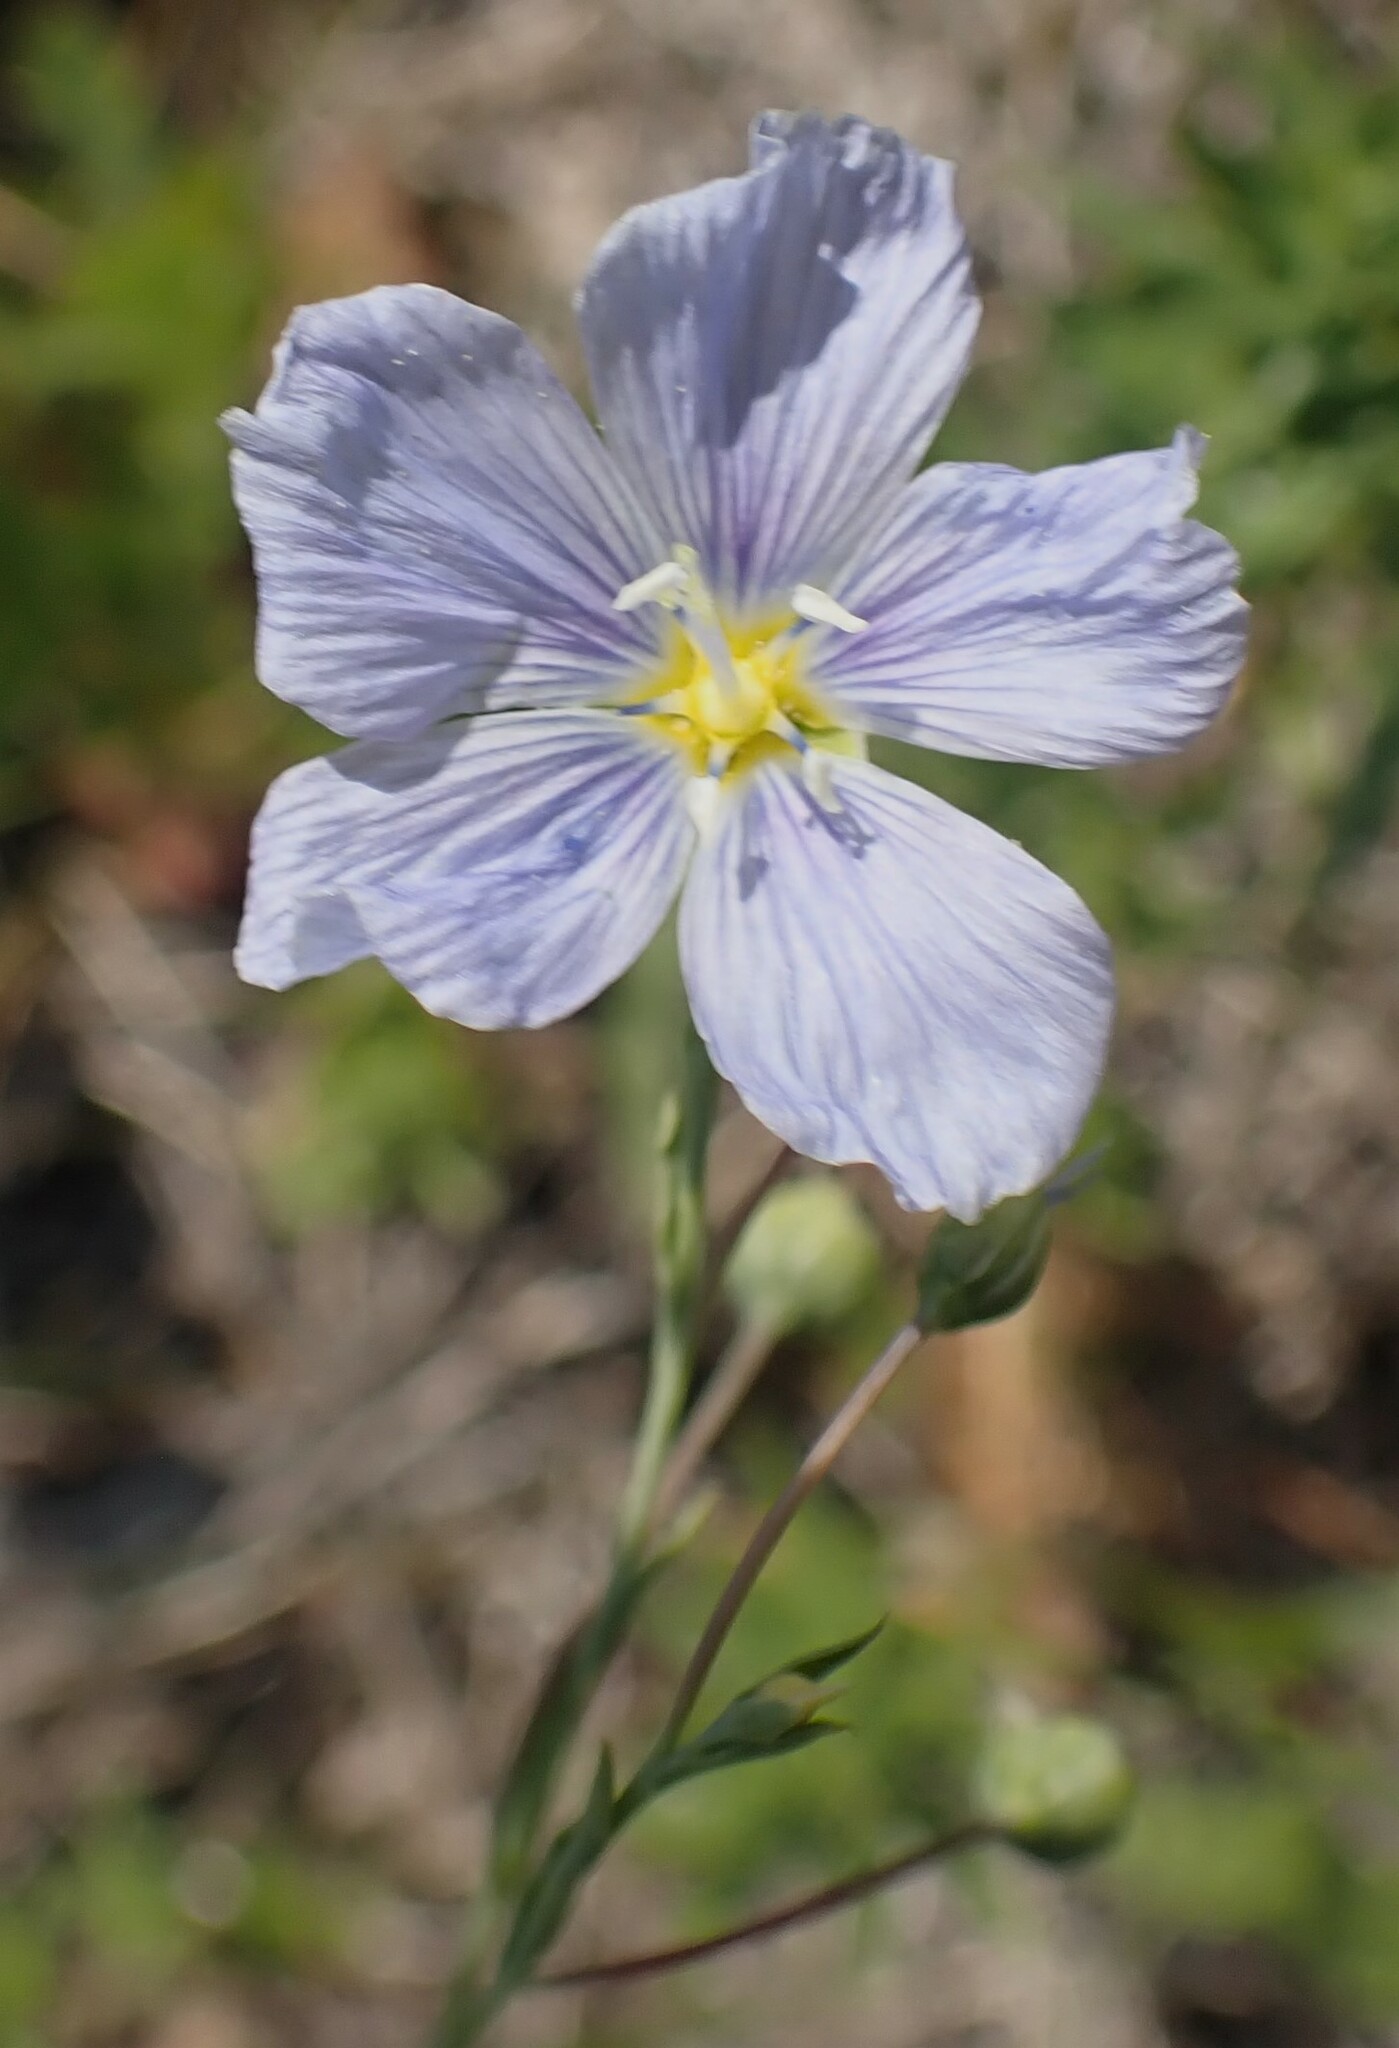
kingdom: Plantae
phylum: Tracheophyta
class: Magnoliopsida
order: Malpighiales
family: Linaceae
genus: Linum
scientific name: Linum lewisii
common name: Prairie flax
